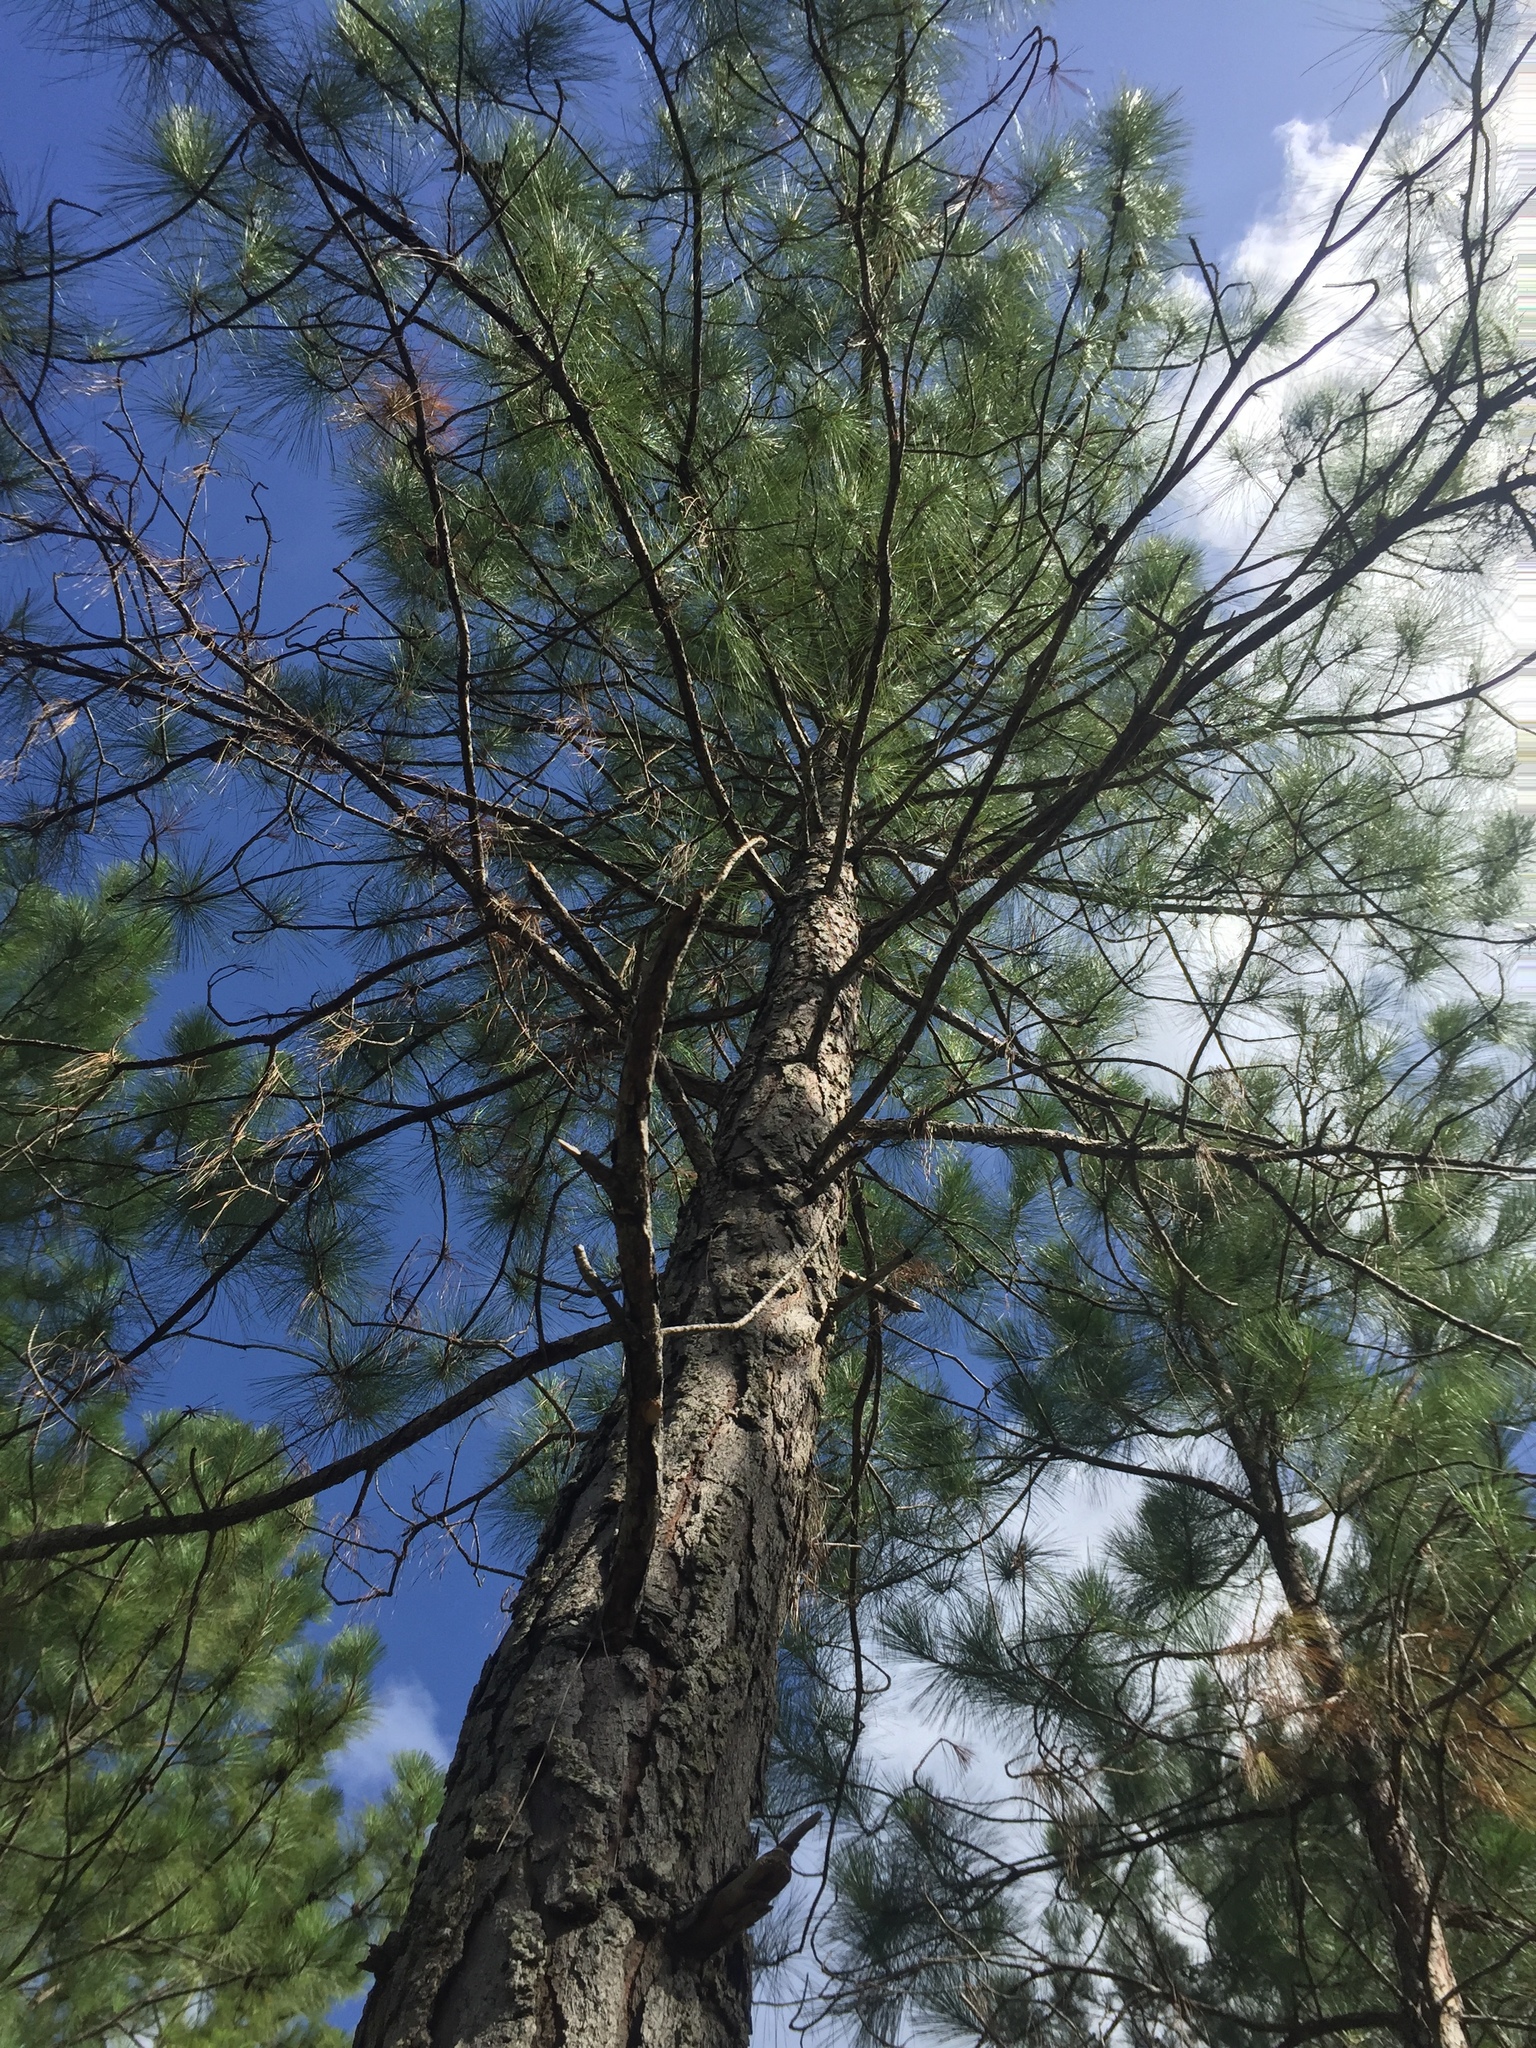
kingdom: Plantae
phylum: Tracheophyta
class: Pinopsida
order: Pinales
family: Pinaceae
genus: Pinus
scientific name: Pinus caribaea
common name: Caribbean pine
